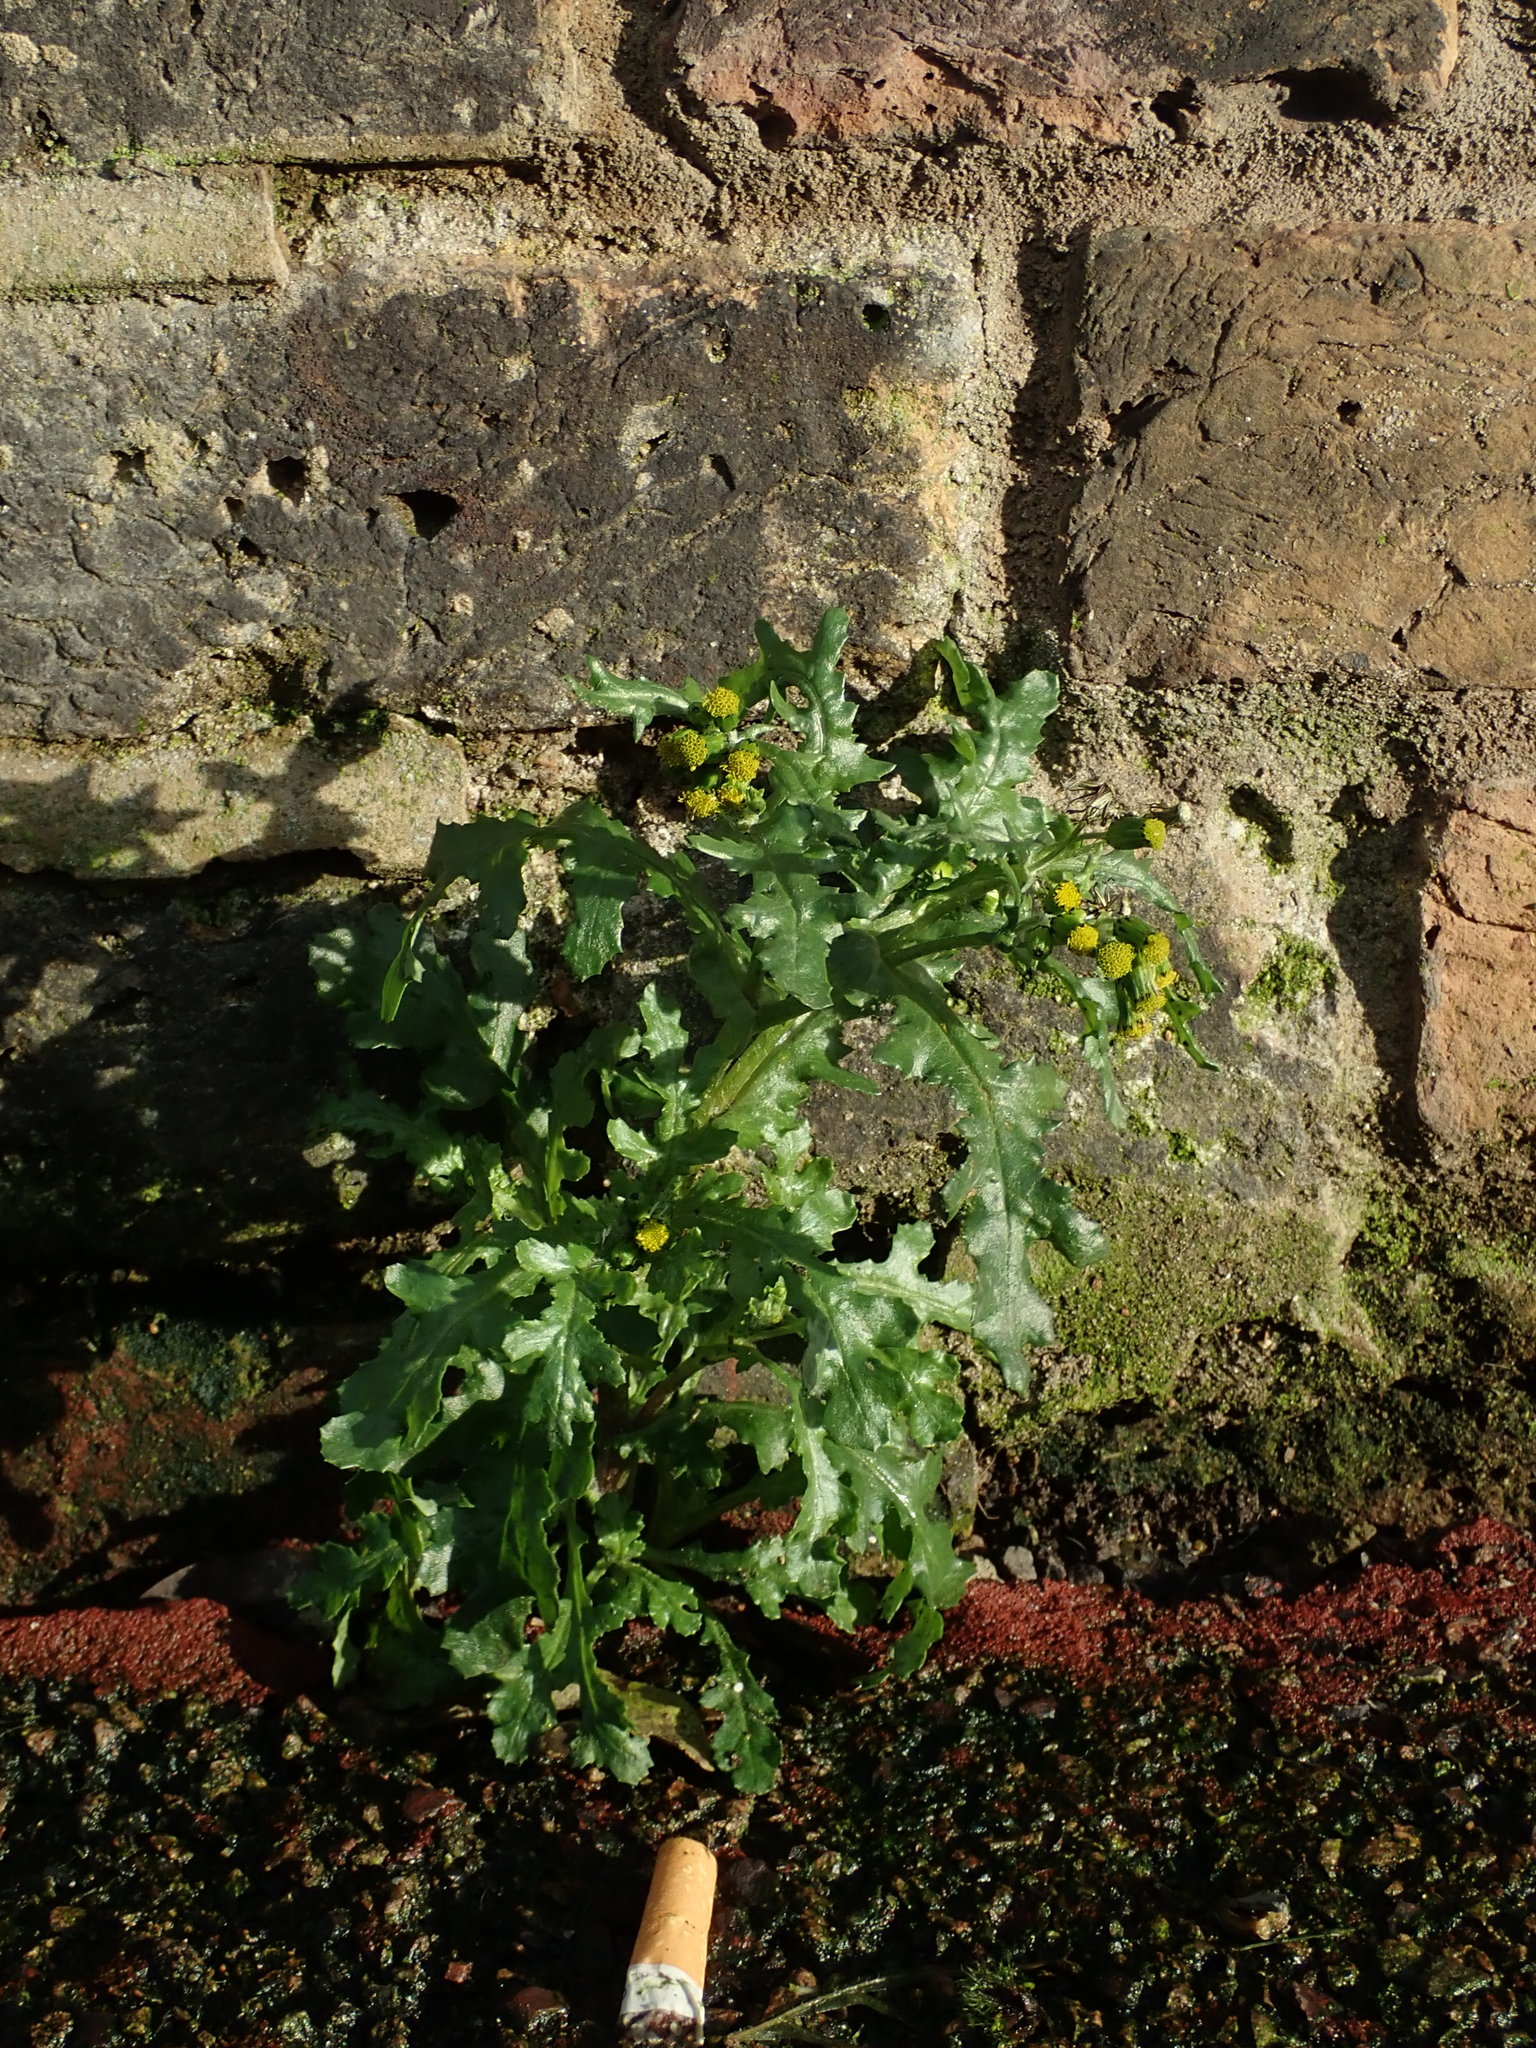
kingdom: Plantae
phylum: Tracheophyta
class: Magnoliopsida
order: Asterales
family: Asteraceae
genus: Senecio
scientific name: Senecio vulgaris
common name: Old-man-in-the-spring
